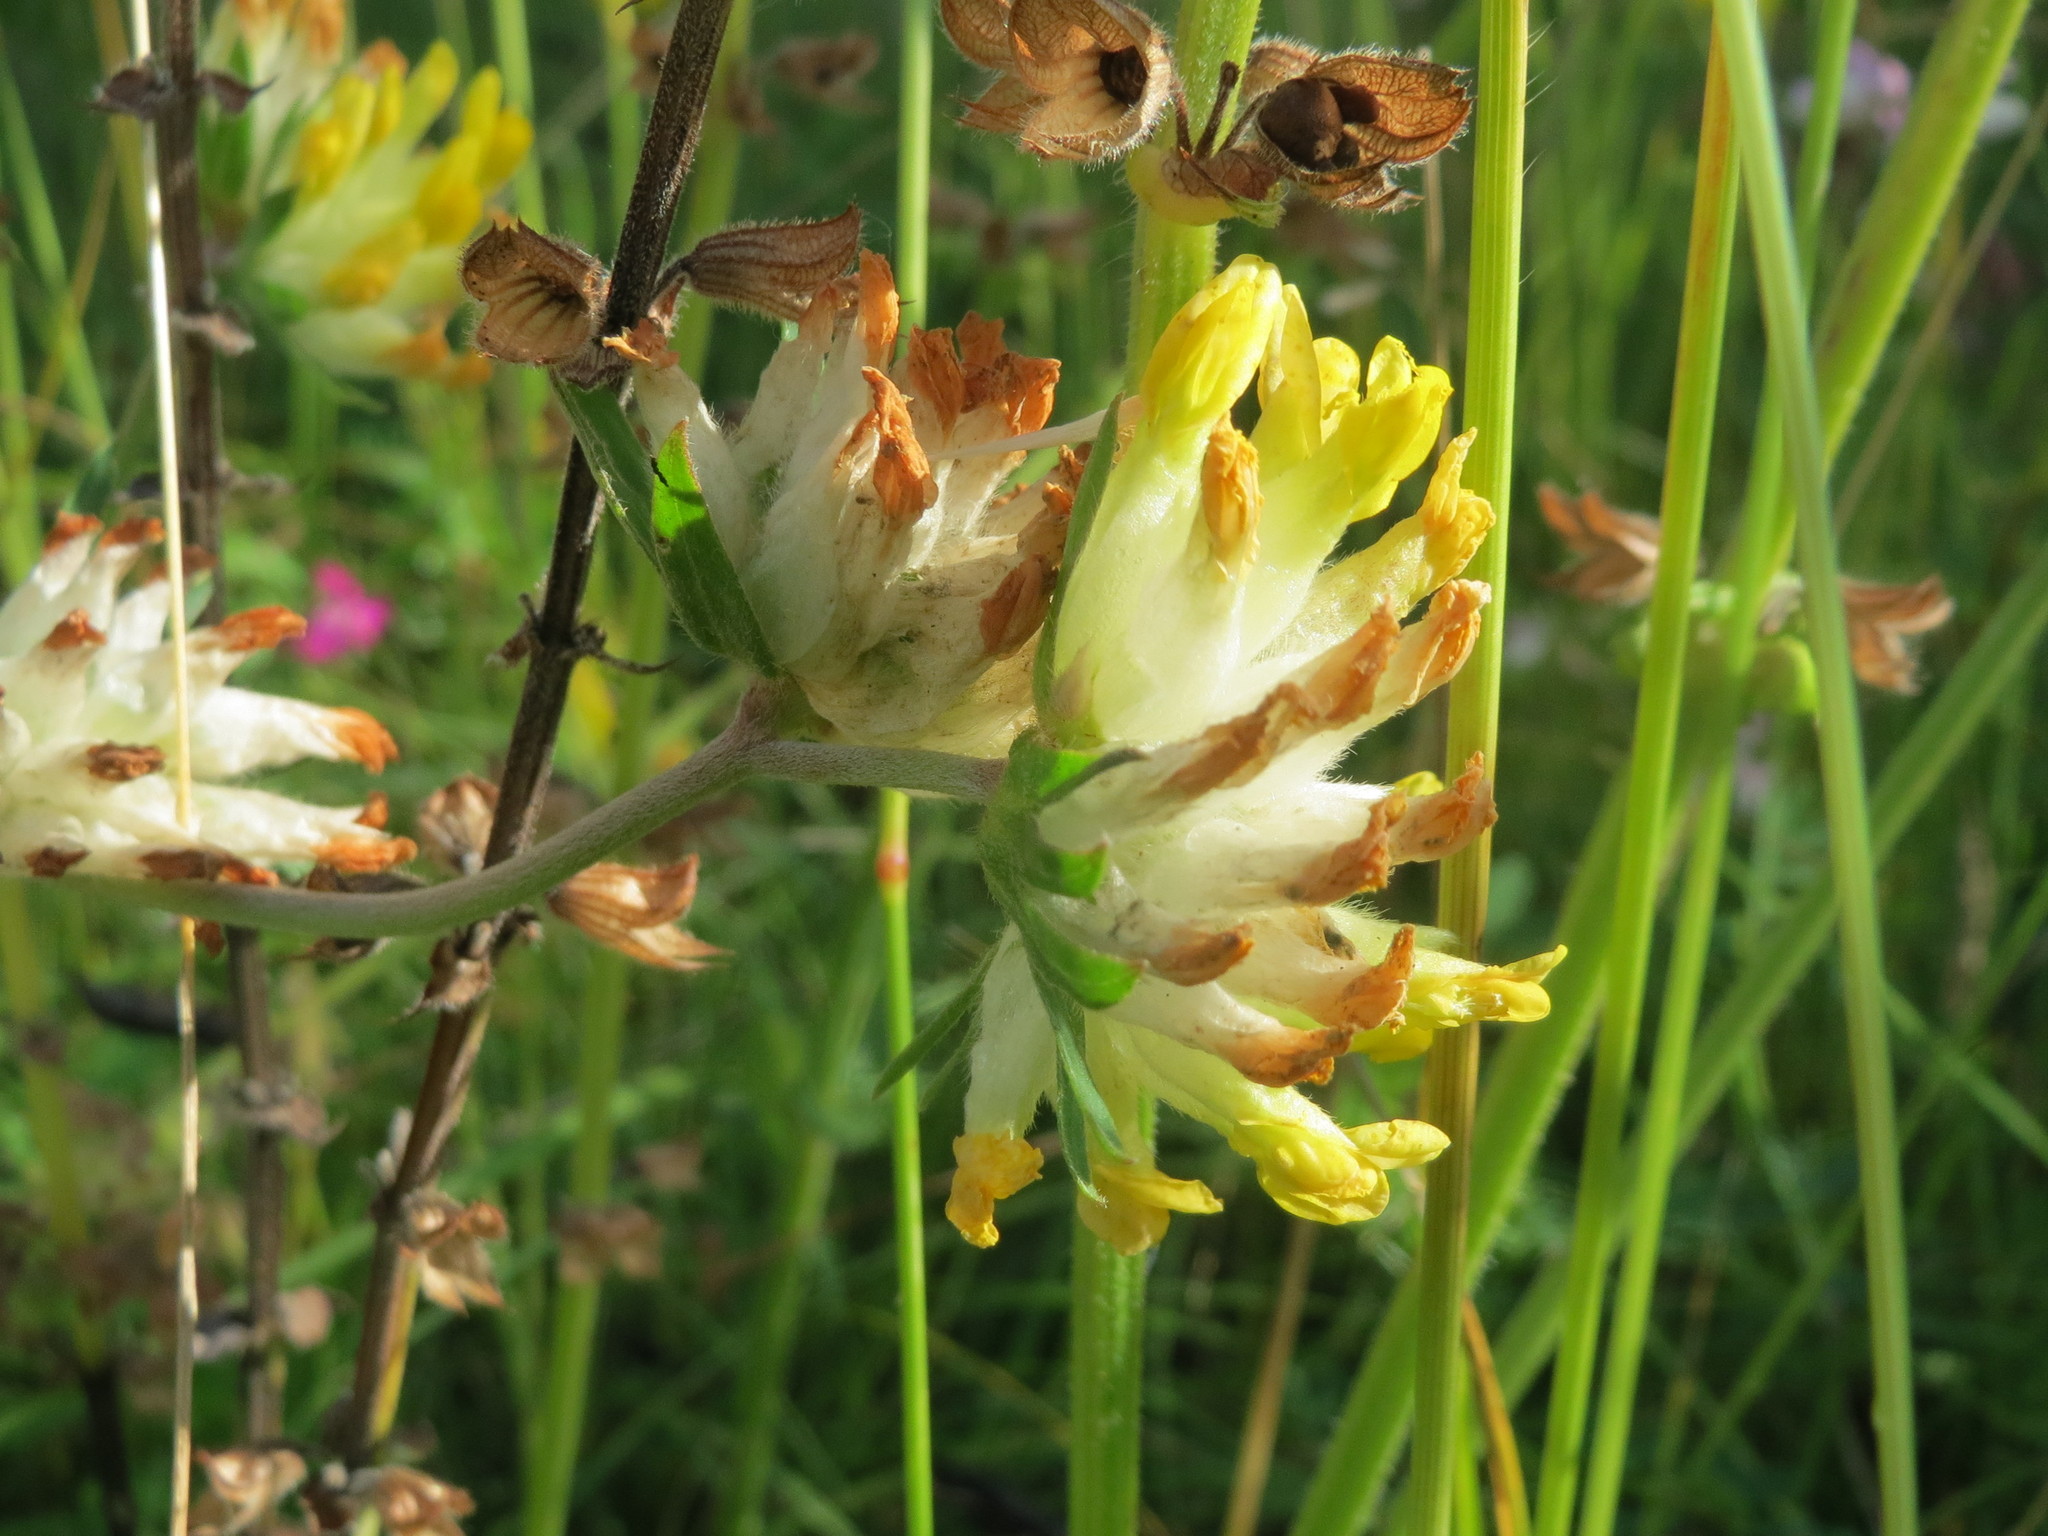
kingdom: Plantae
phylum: Tracheophyta
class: Magnoliopsida
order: Fabales
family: Fabaceae
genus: Anthyllis
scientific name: Anthyllis vulneraria
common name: Kidney vetch
